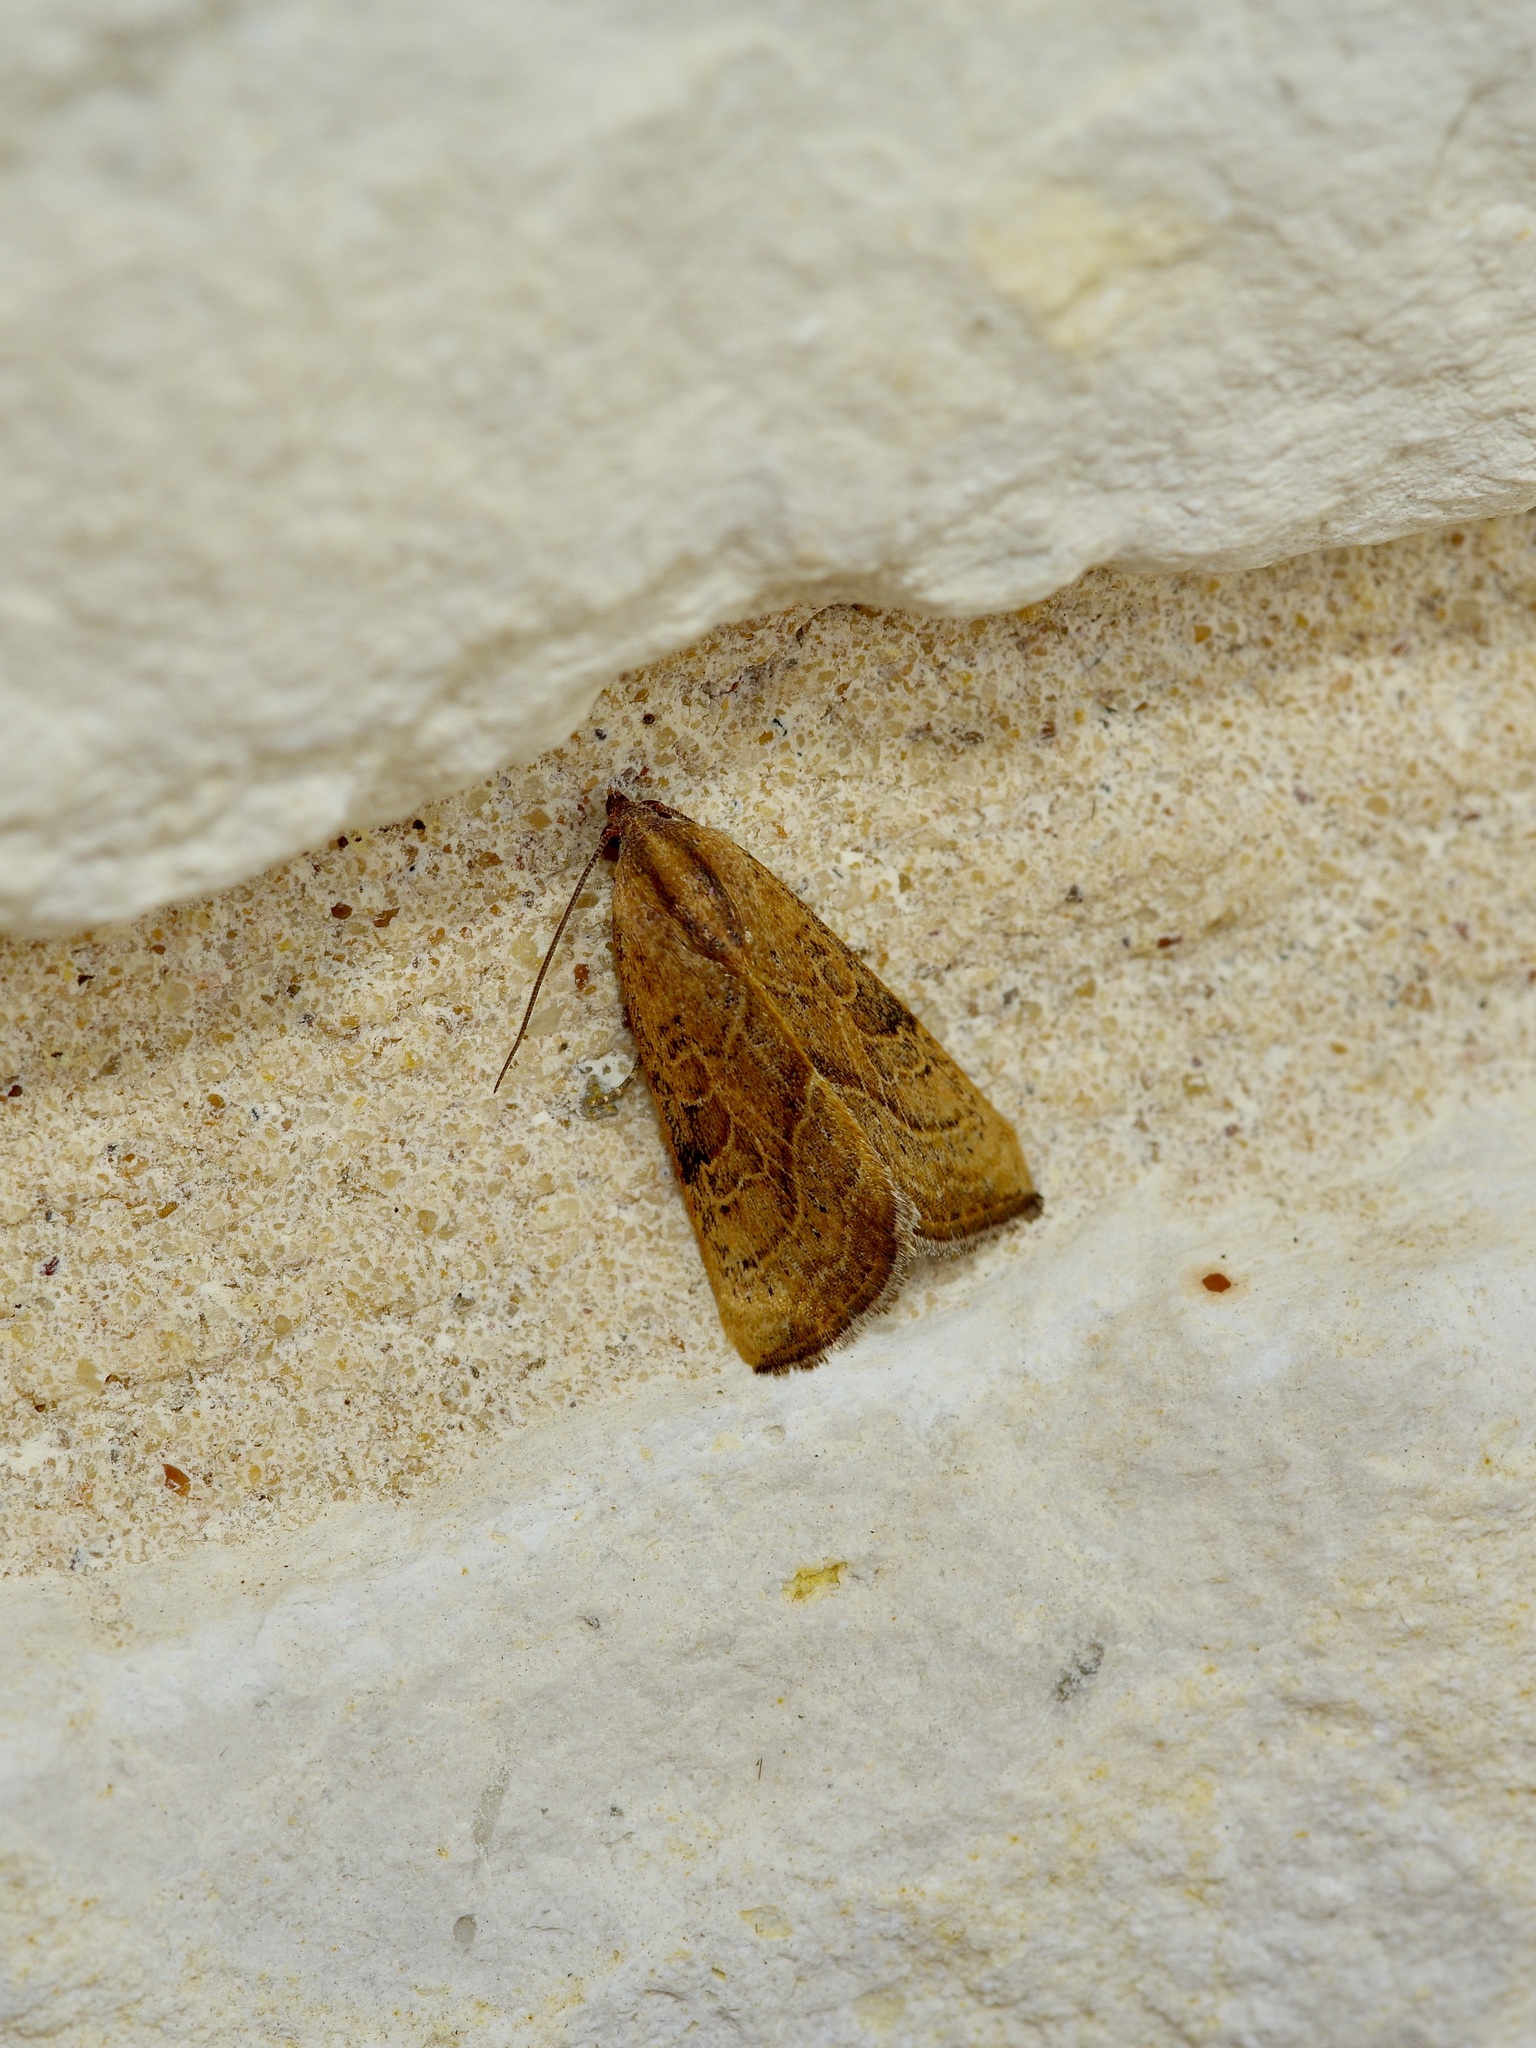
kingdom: Animalia
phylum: Arthropoda
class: Insecta
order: Lepidoptera
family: Noctuidae
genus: Galgula
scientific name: Galgula partita
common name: Wedgeling
